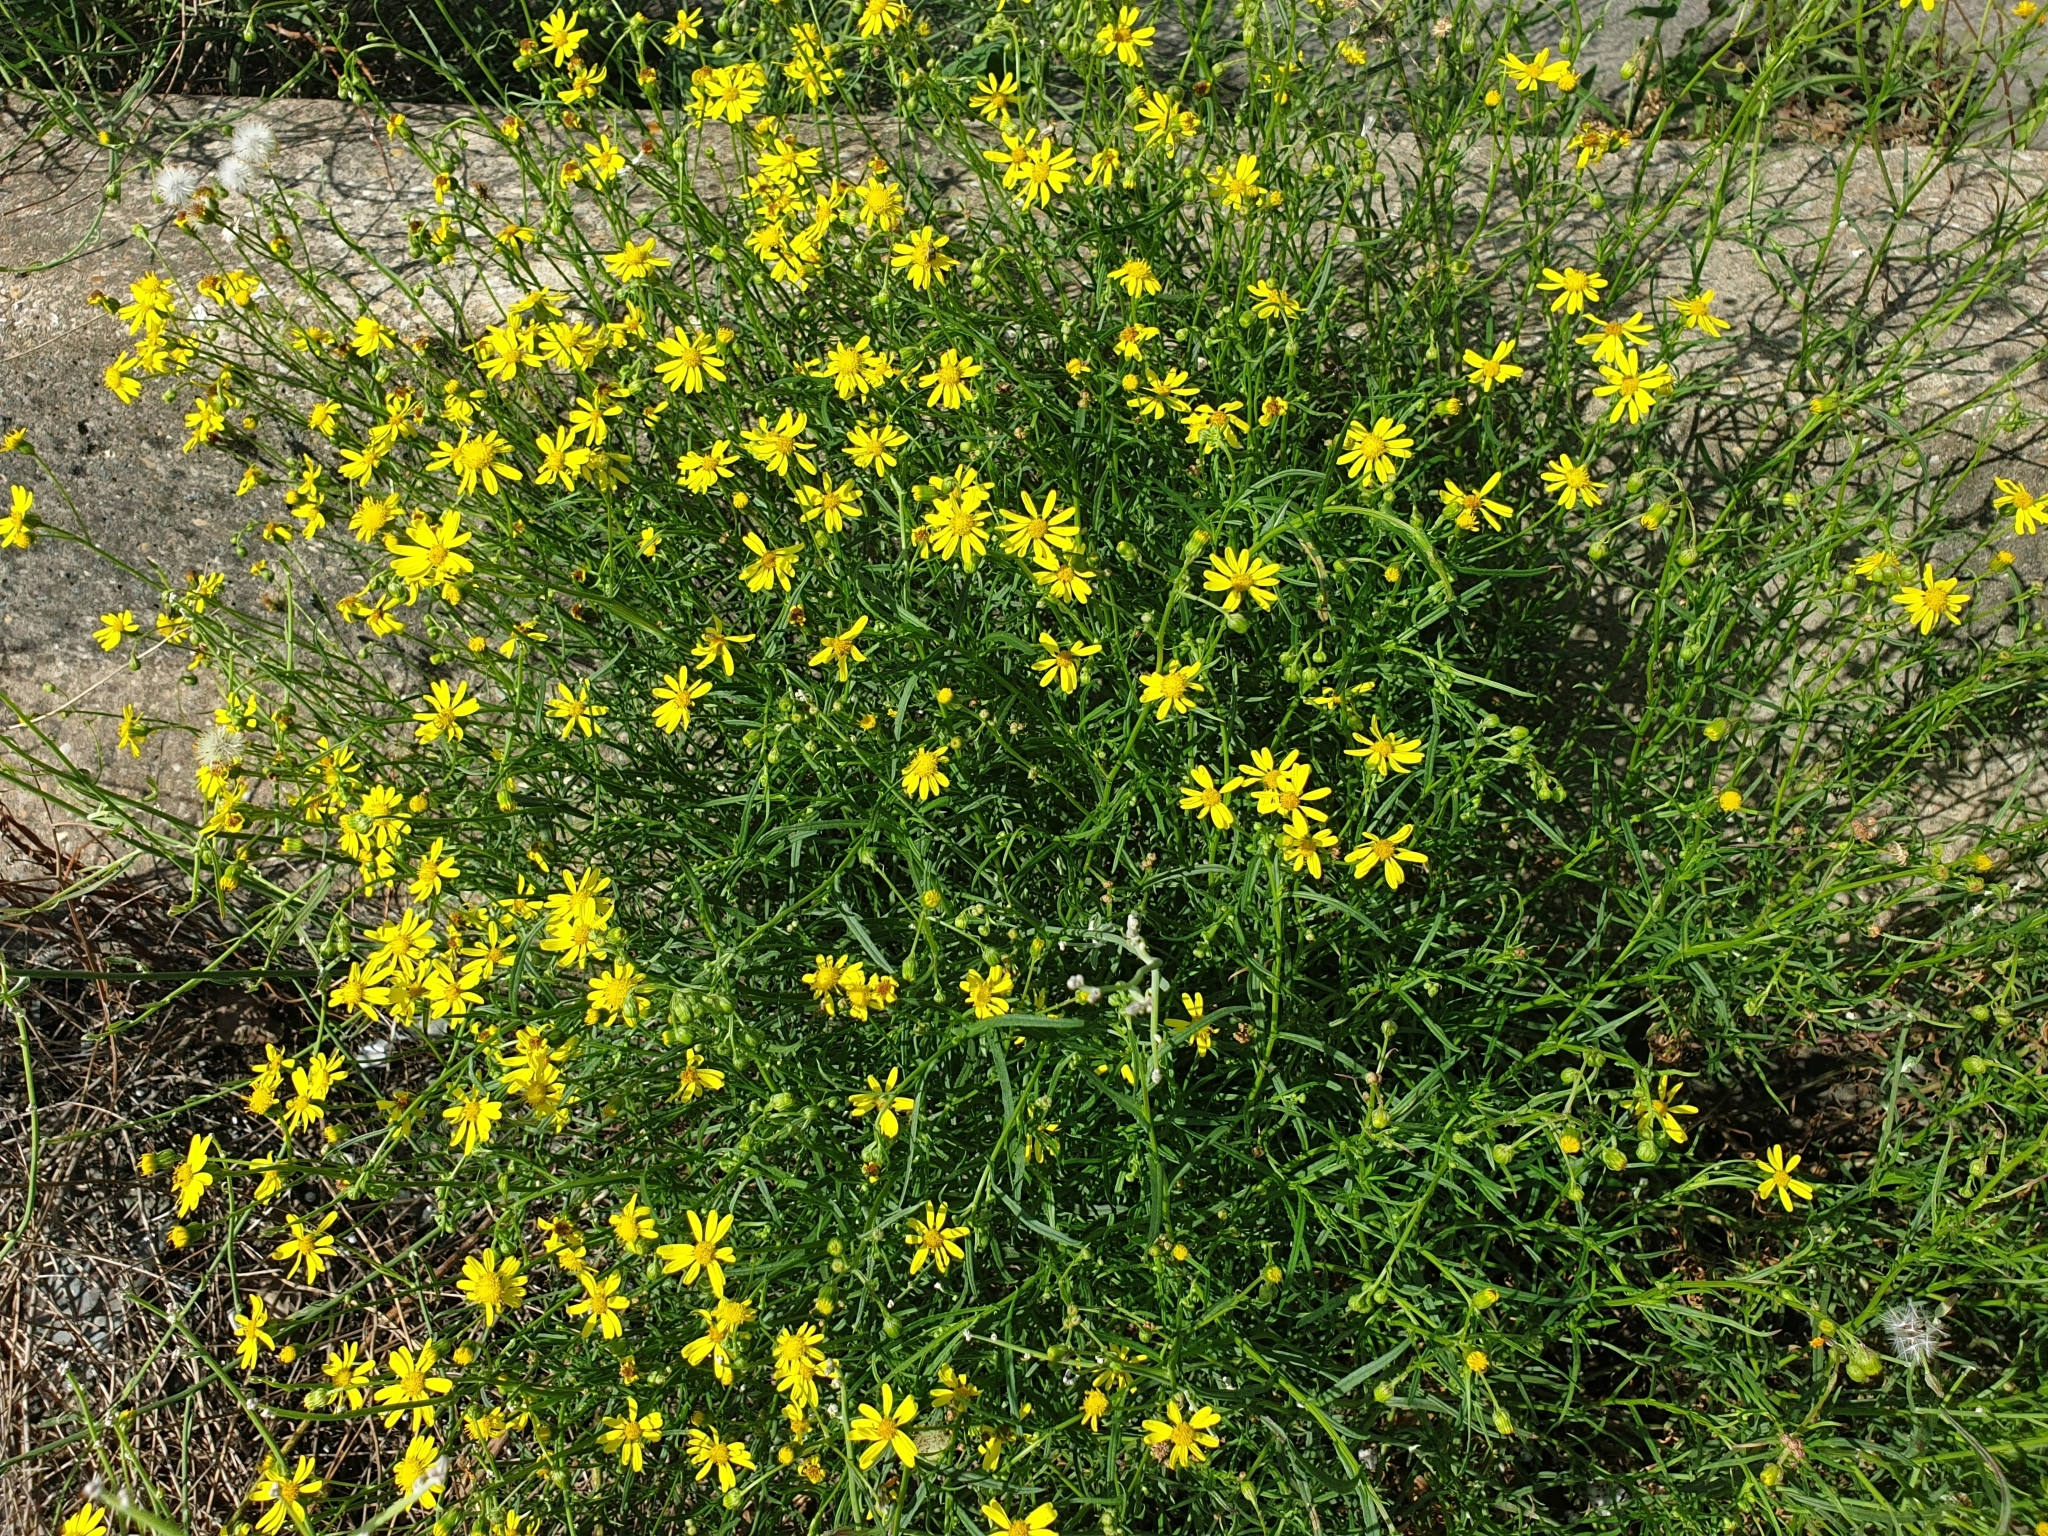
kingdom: Plantae
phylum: Tracheophyta
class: Magnoliopsida
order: Asterales
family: Asteraceae
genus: Senecio
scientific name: Senecio inaequidens
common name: Narrow-leaved ragwort
